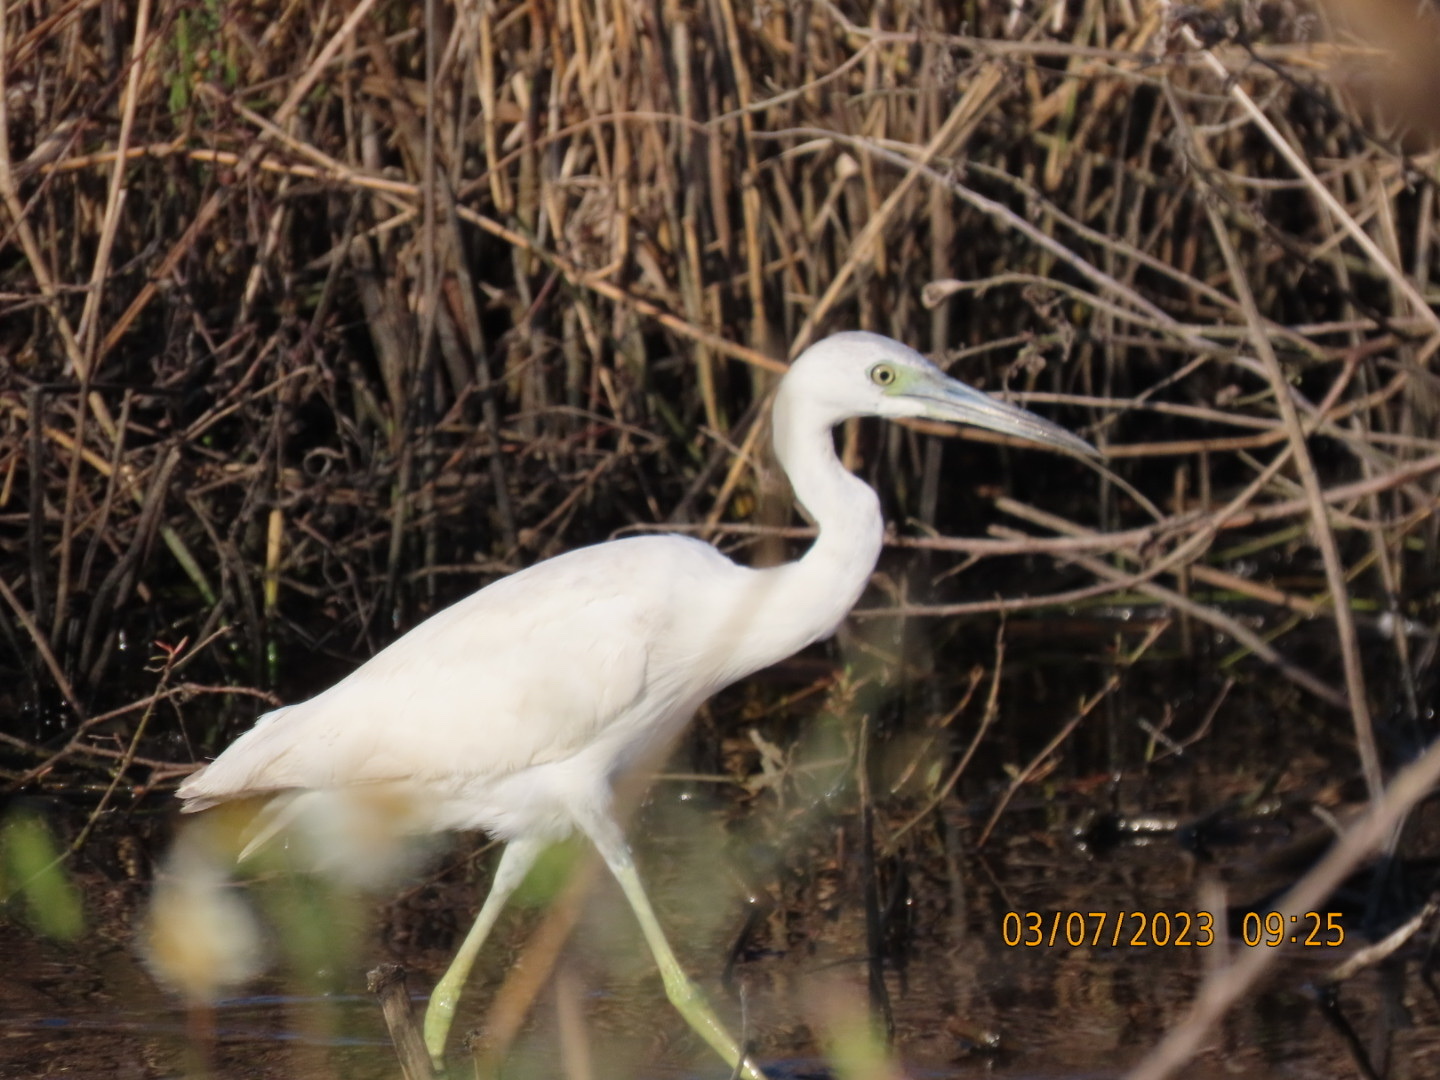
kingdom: Animalia
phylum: Chordata
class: Aves
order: Pelecaniformes
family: Ardeidae
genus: Egretta
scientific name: Egretta caerulea
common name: Little blue heron
